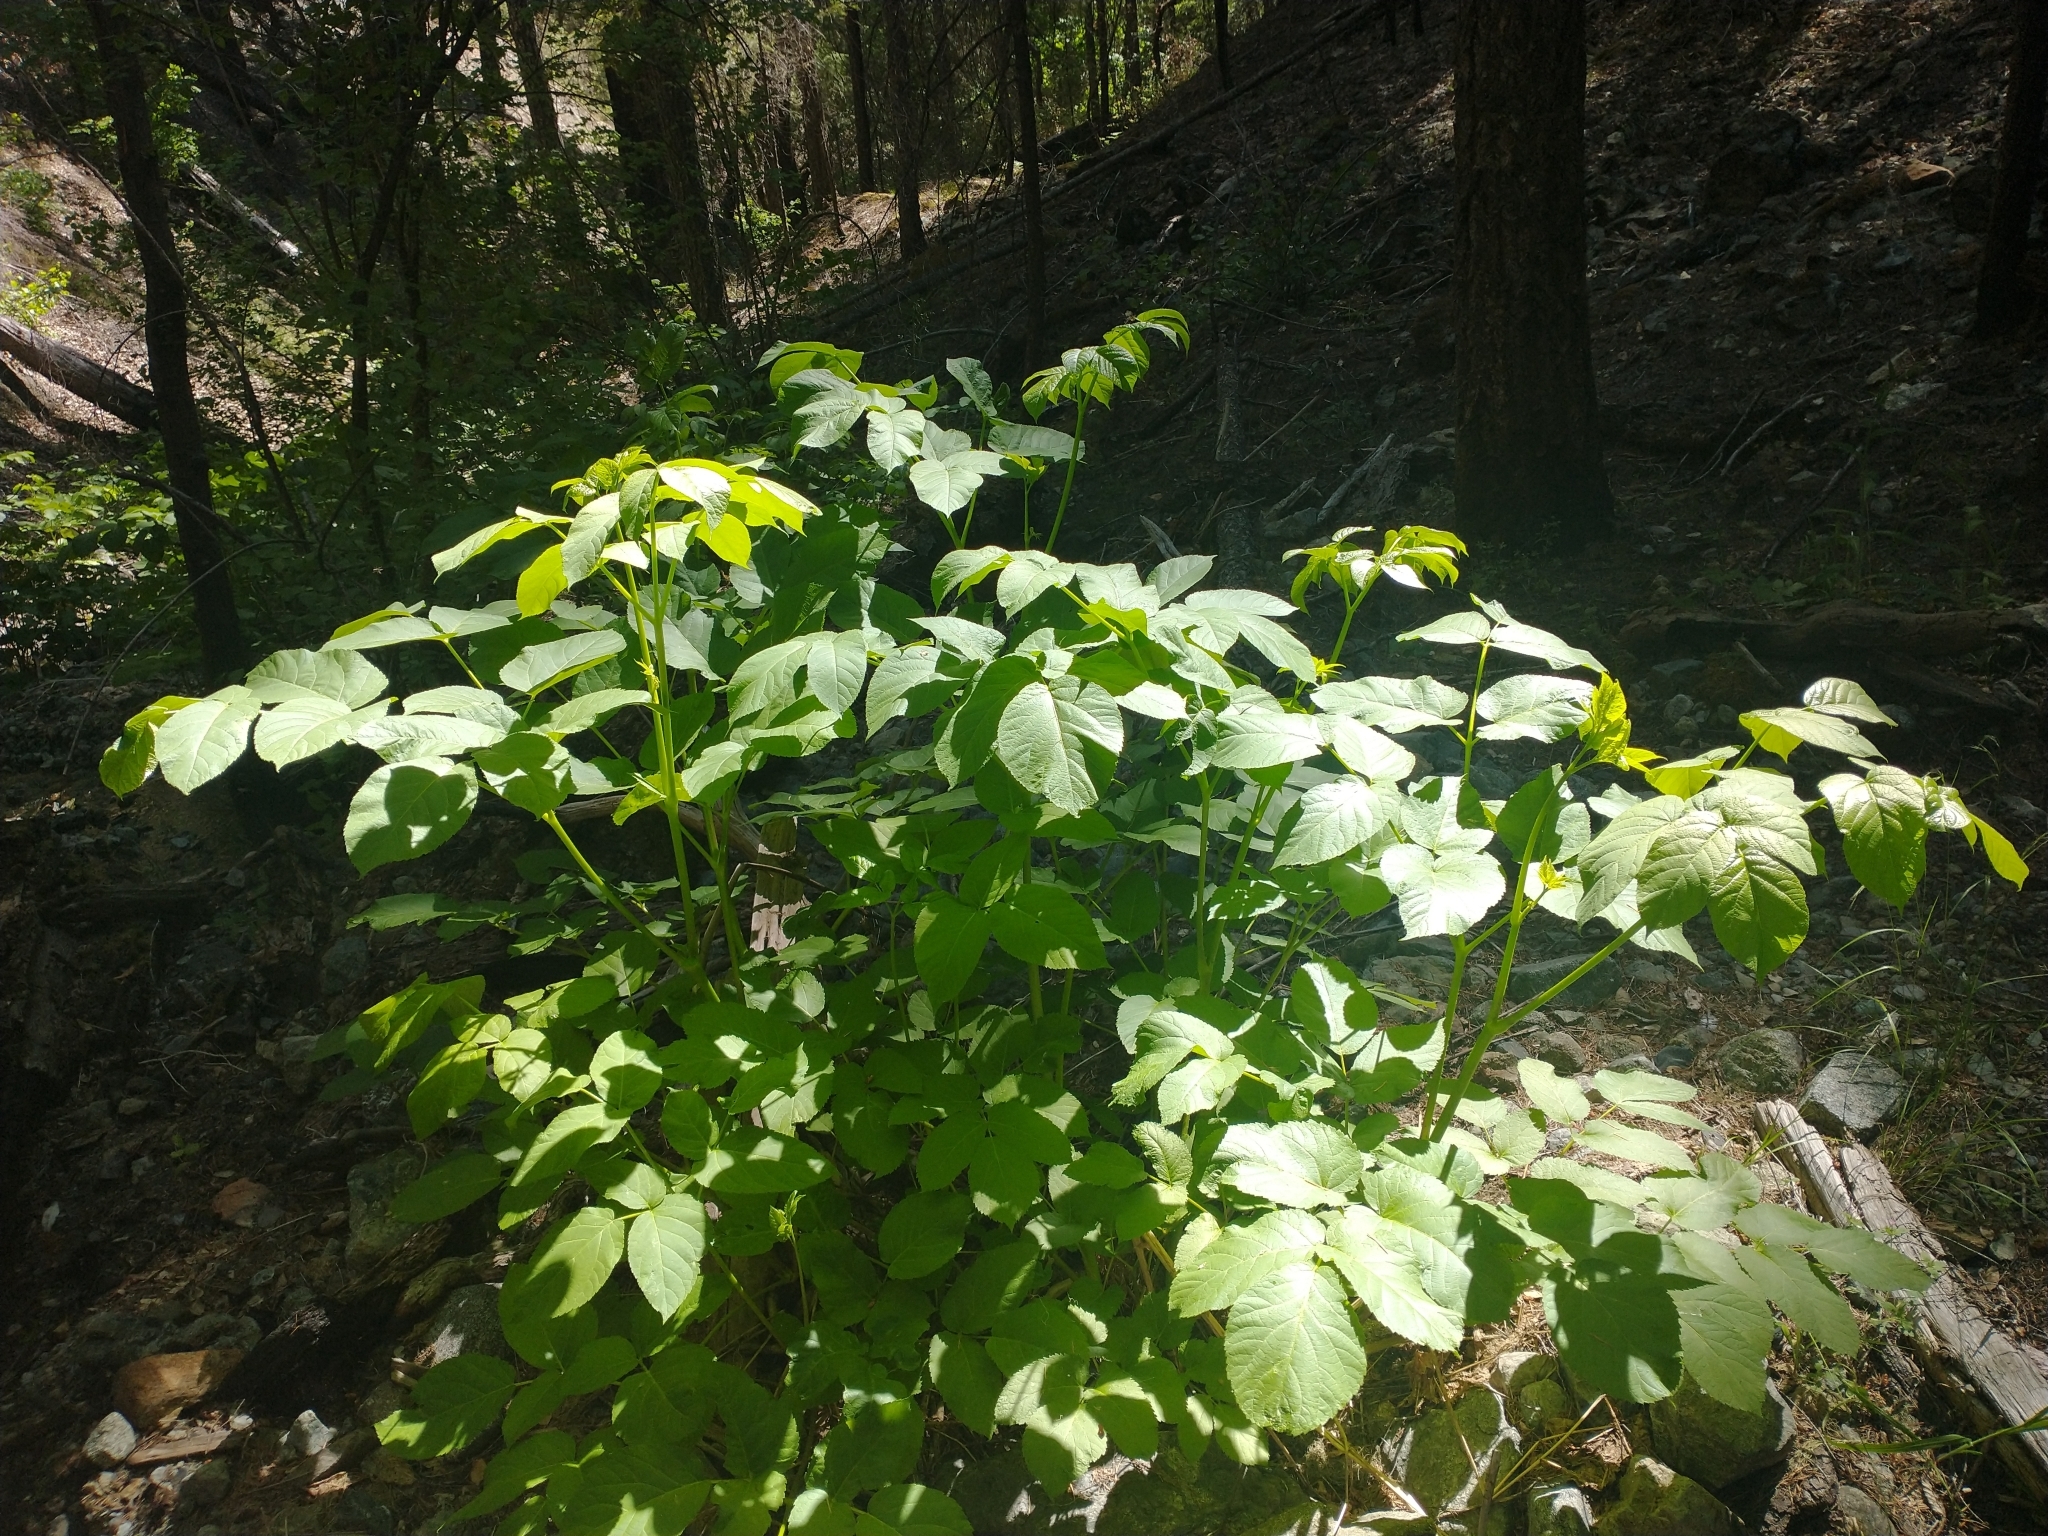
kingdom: Plantae
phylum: Tracheophyta
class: Magnoliopsida
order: Apiales
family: Araliaceae
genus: Aralia
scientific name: Aralia californica
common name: California-ginseng
